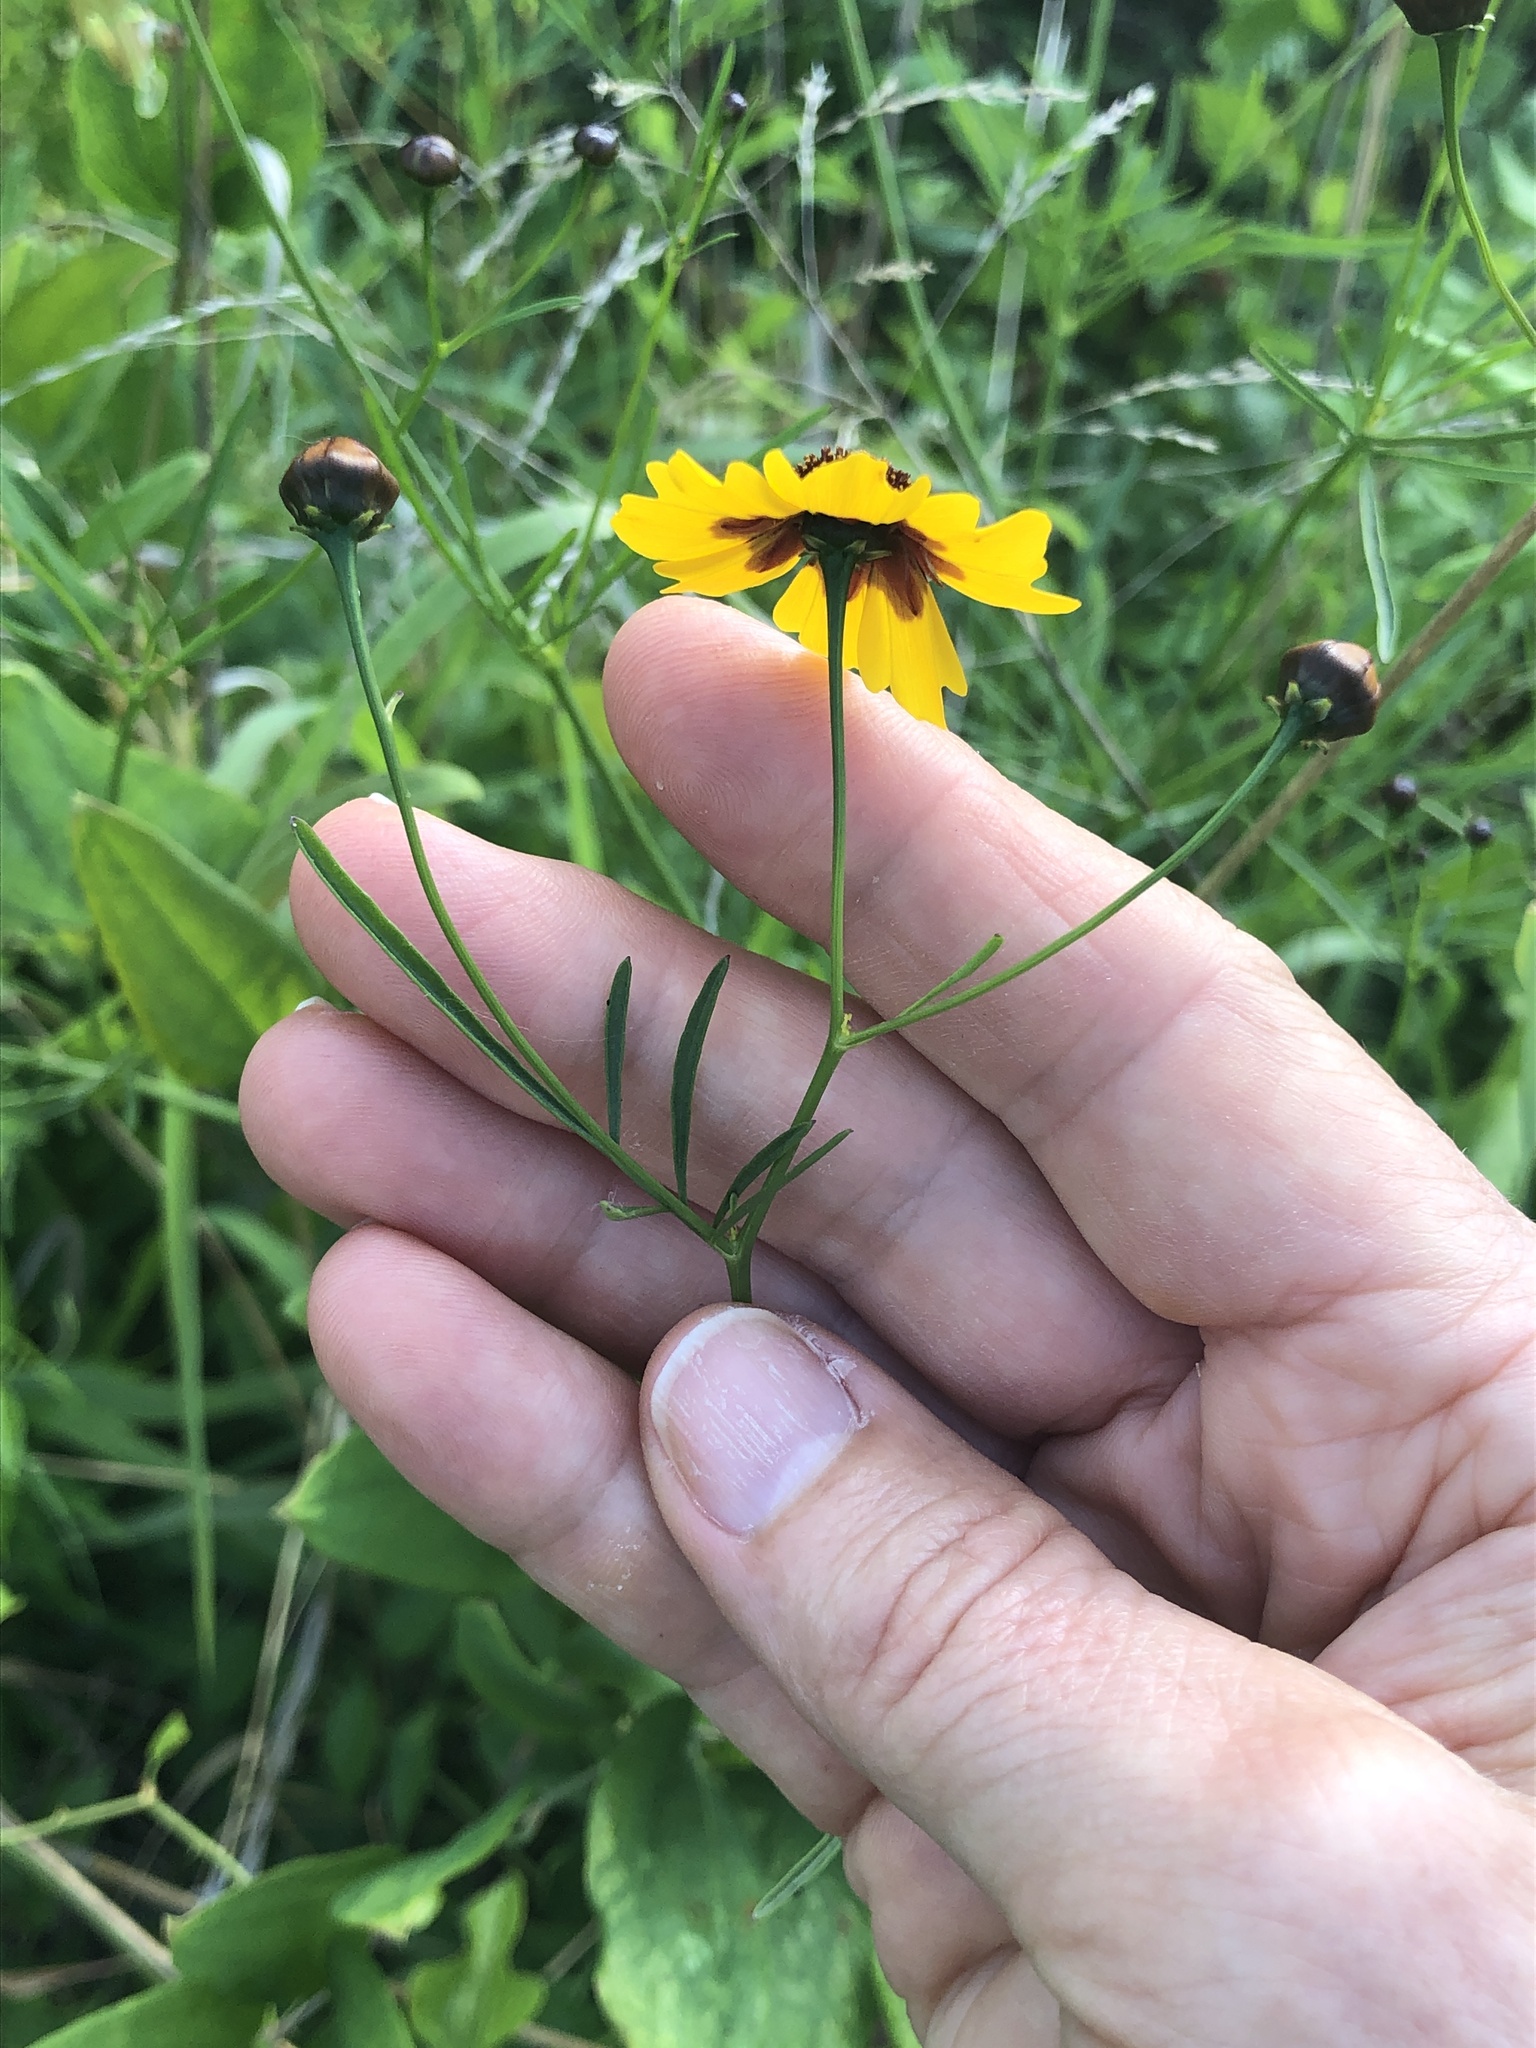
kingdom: Plantae
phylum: Tracheophyta
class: Magnoliopsida
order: Asterales
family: Asteraceae
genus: Coreopsis
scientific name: Coreopsis tinctoria
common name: Garden tickseed
